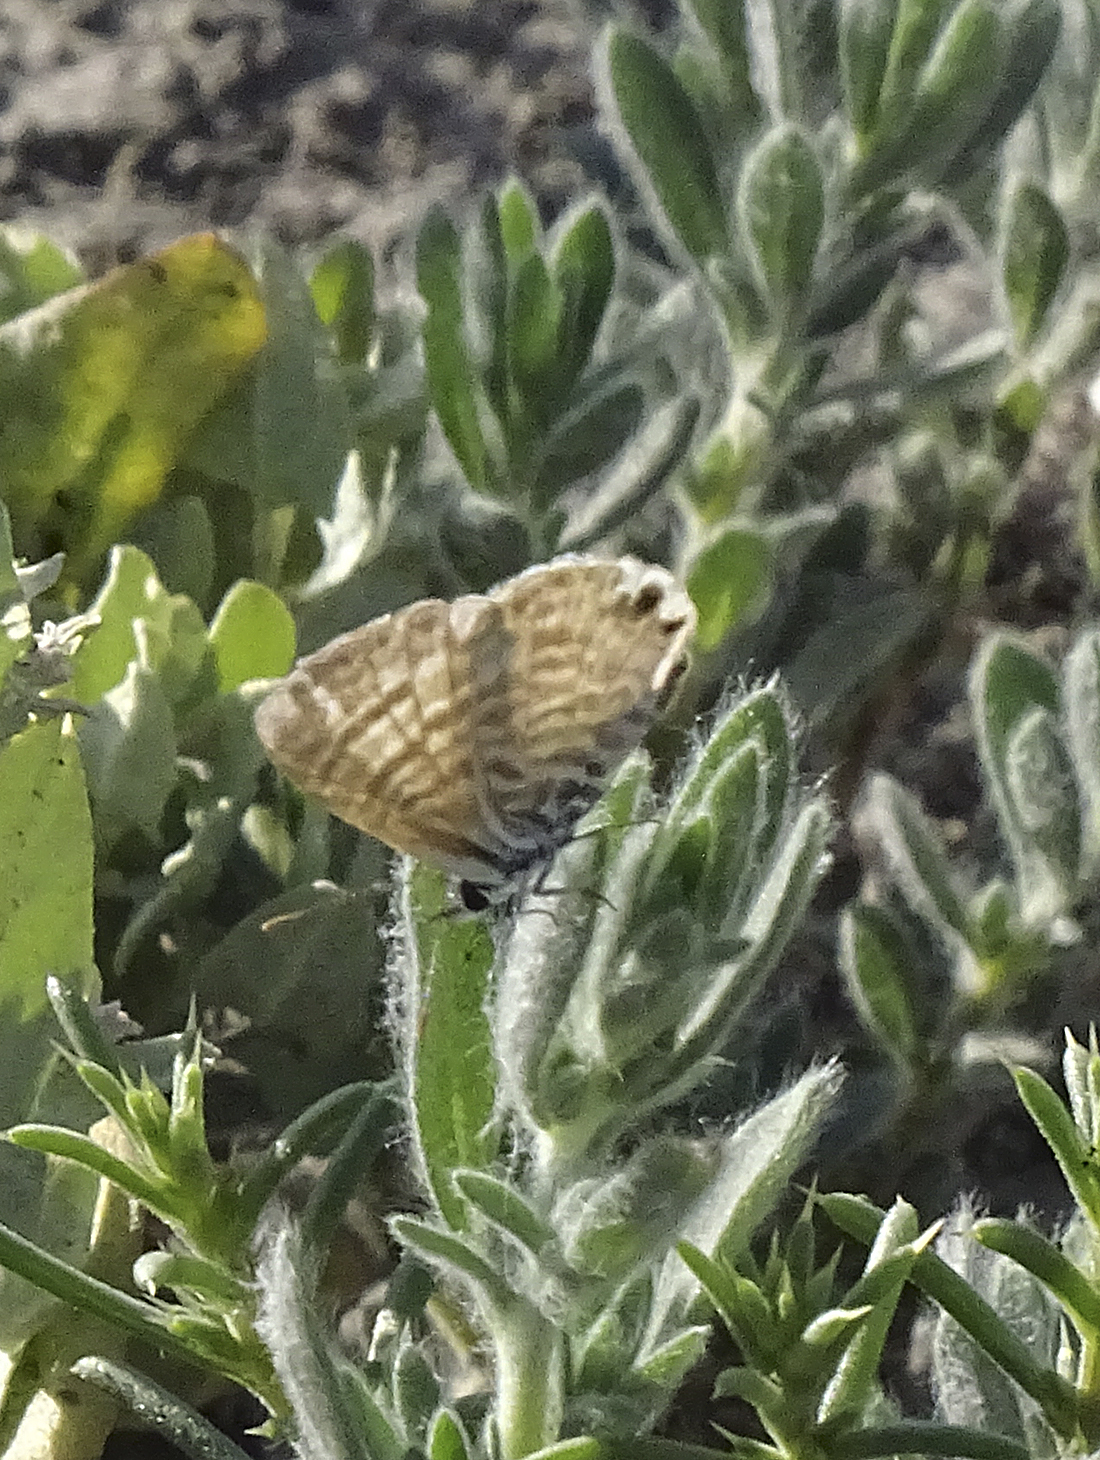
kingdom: Animalia
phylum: Arthropoda
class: Insecta
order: Lepidoptera
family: Lycaenidae
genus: Leptotes
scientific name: Leptotes marina
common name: Marine blue
